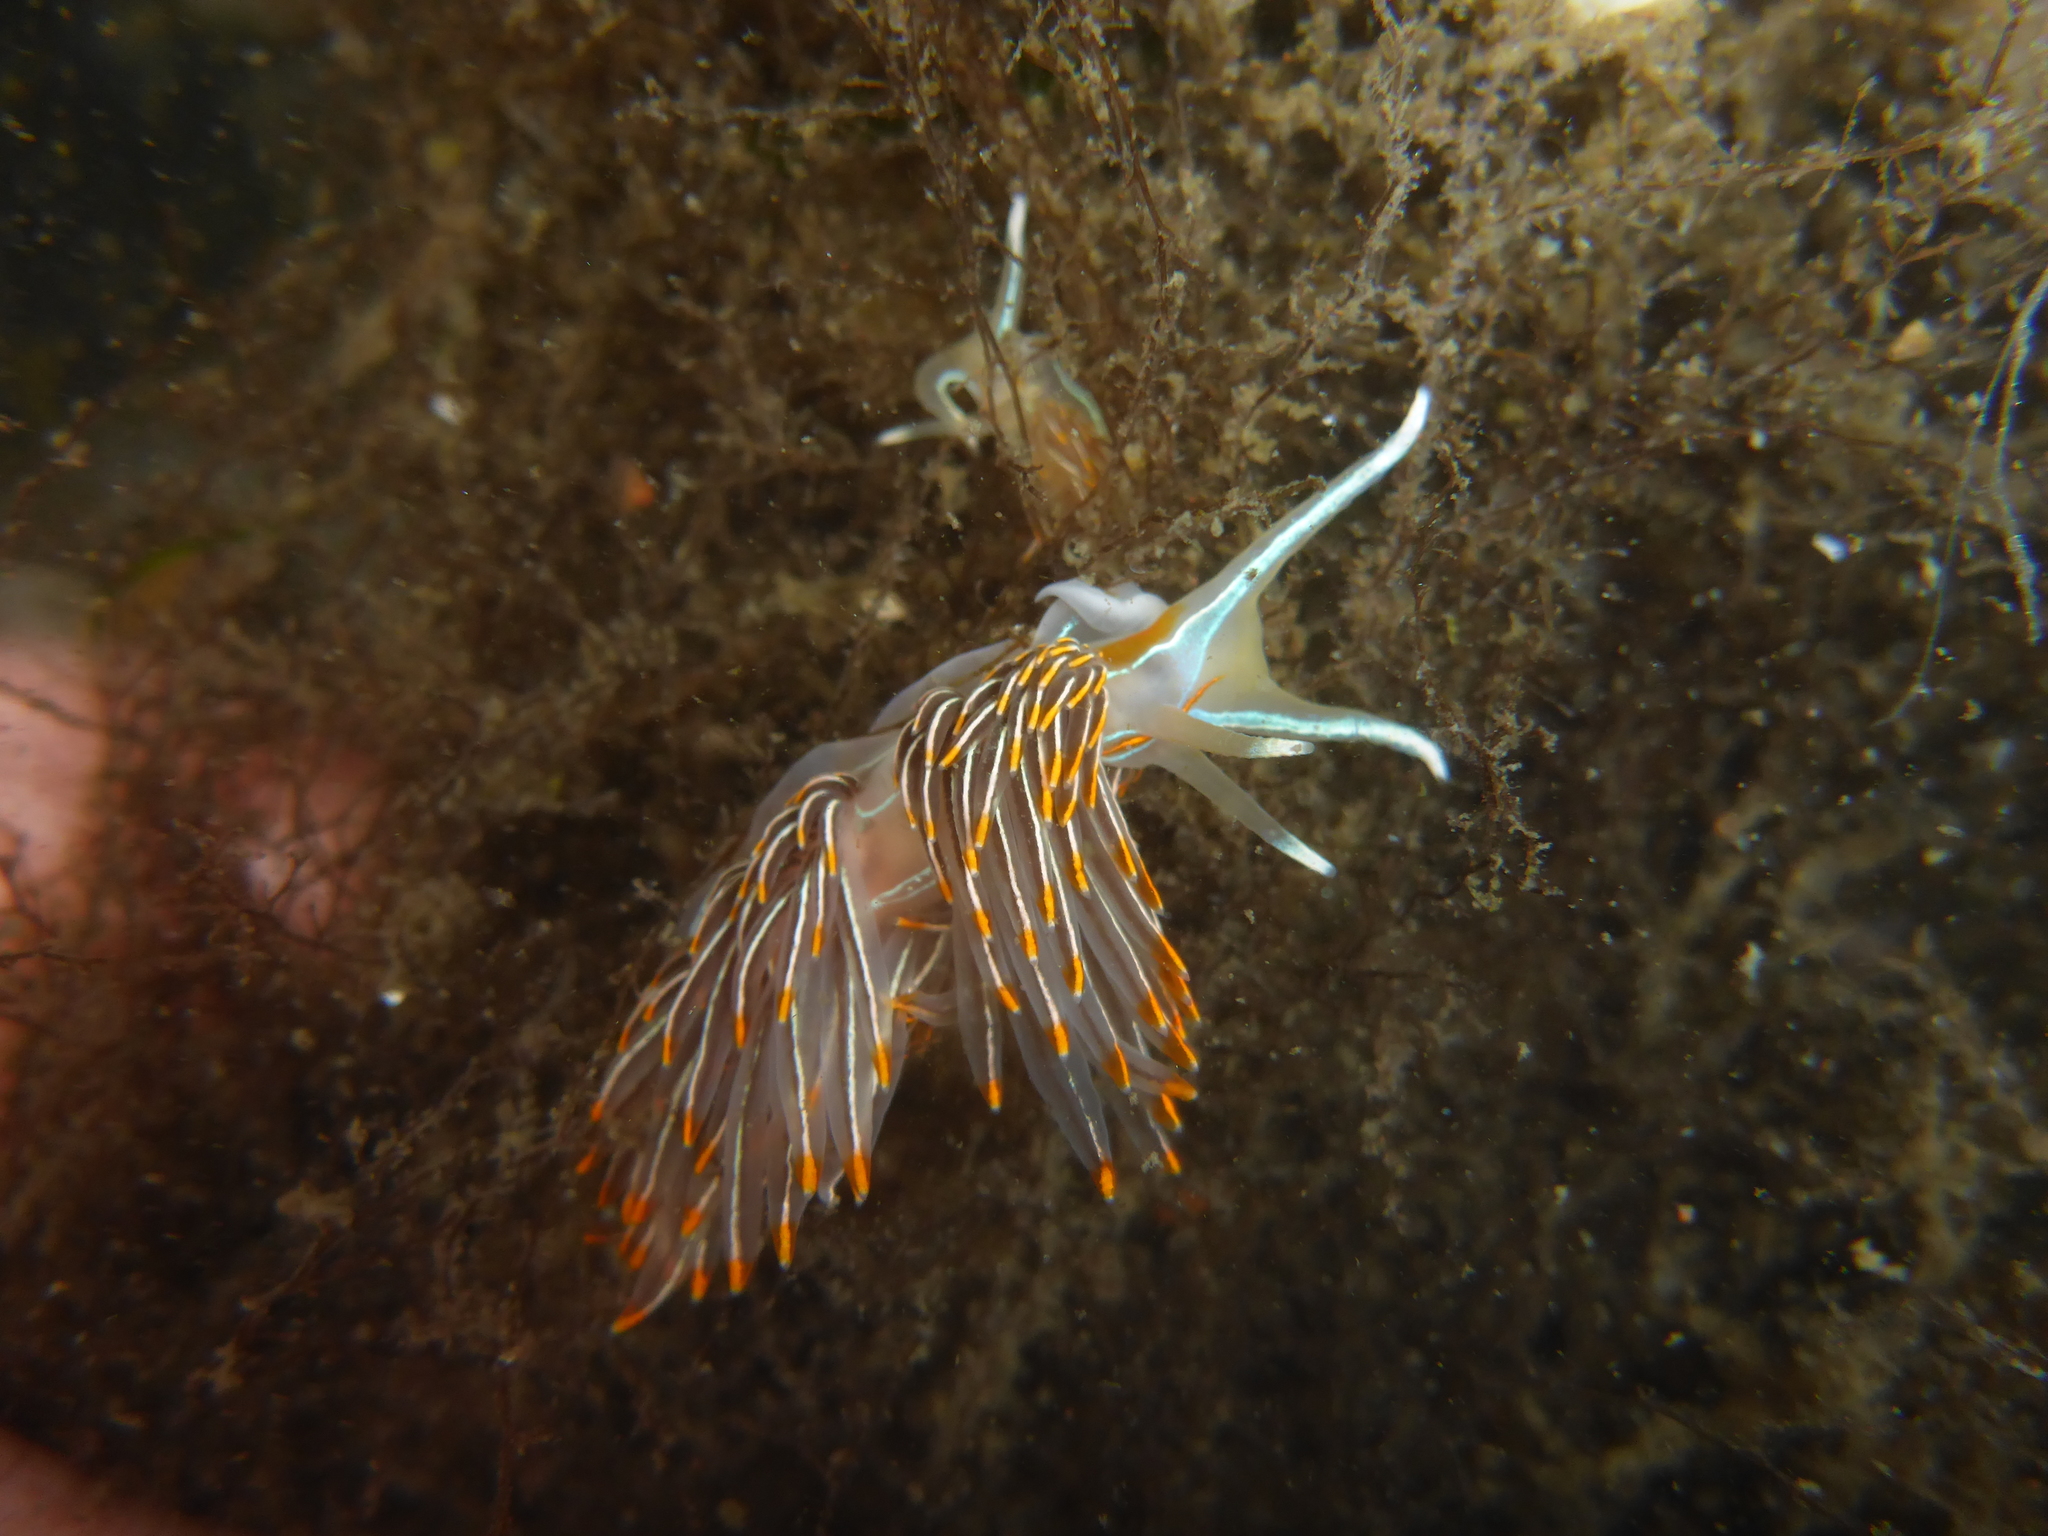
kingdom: Animalia
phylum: Mollusca
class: Gastropoda
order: Nudibranchia
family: Myrrhinidae
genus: Hermissenda
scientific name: Hermissenda crassicornis
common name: Hermissenda
